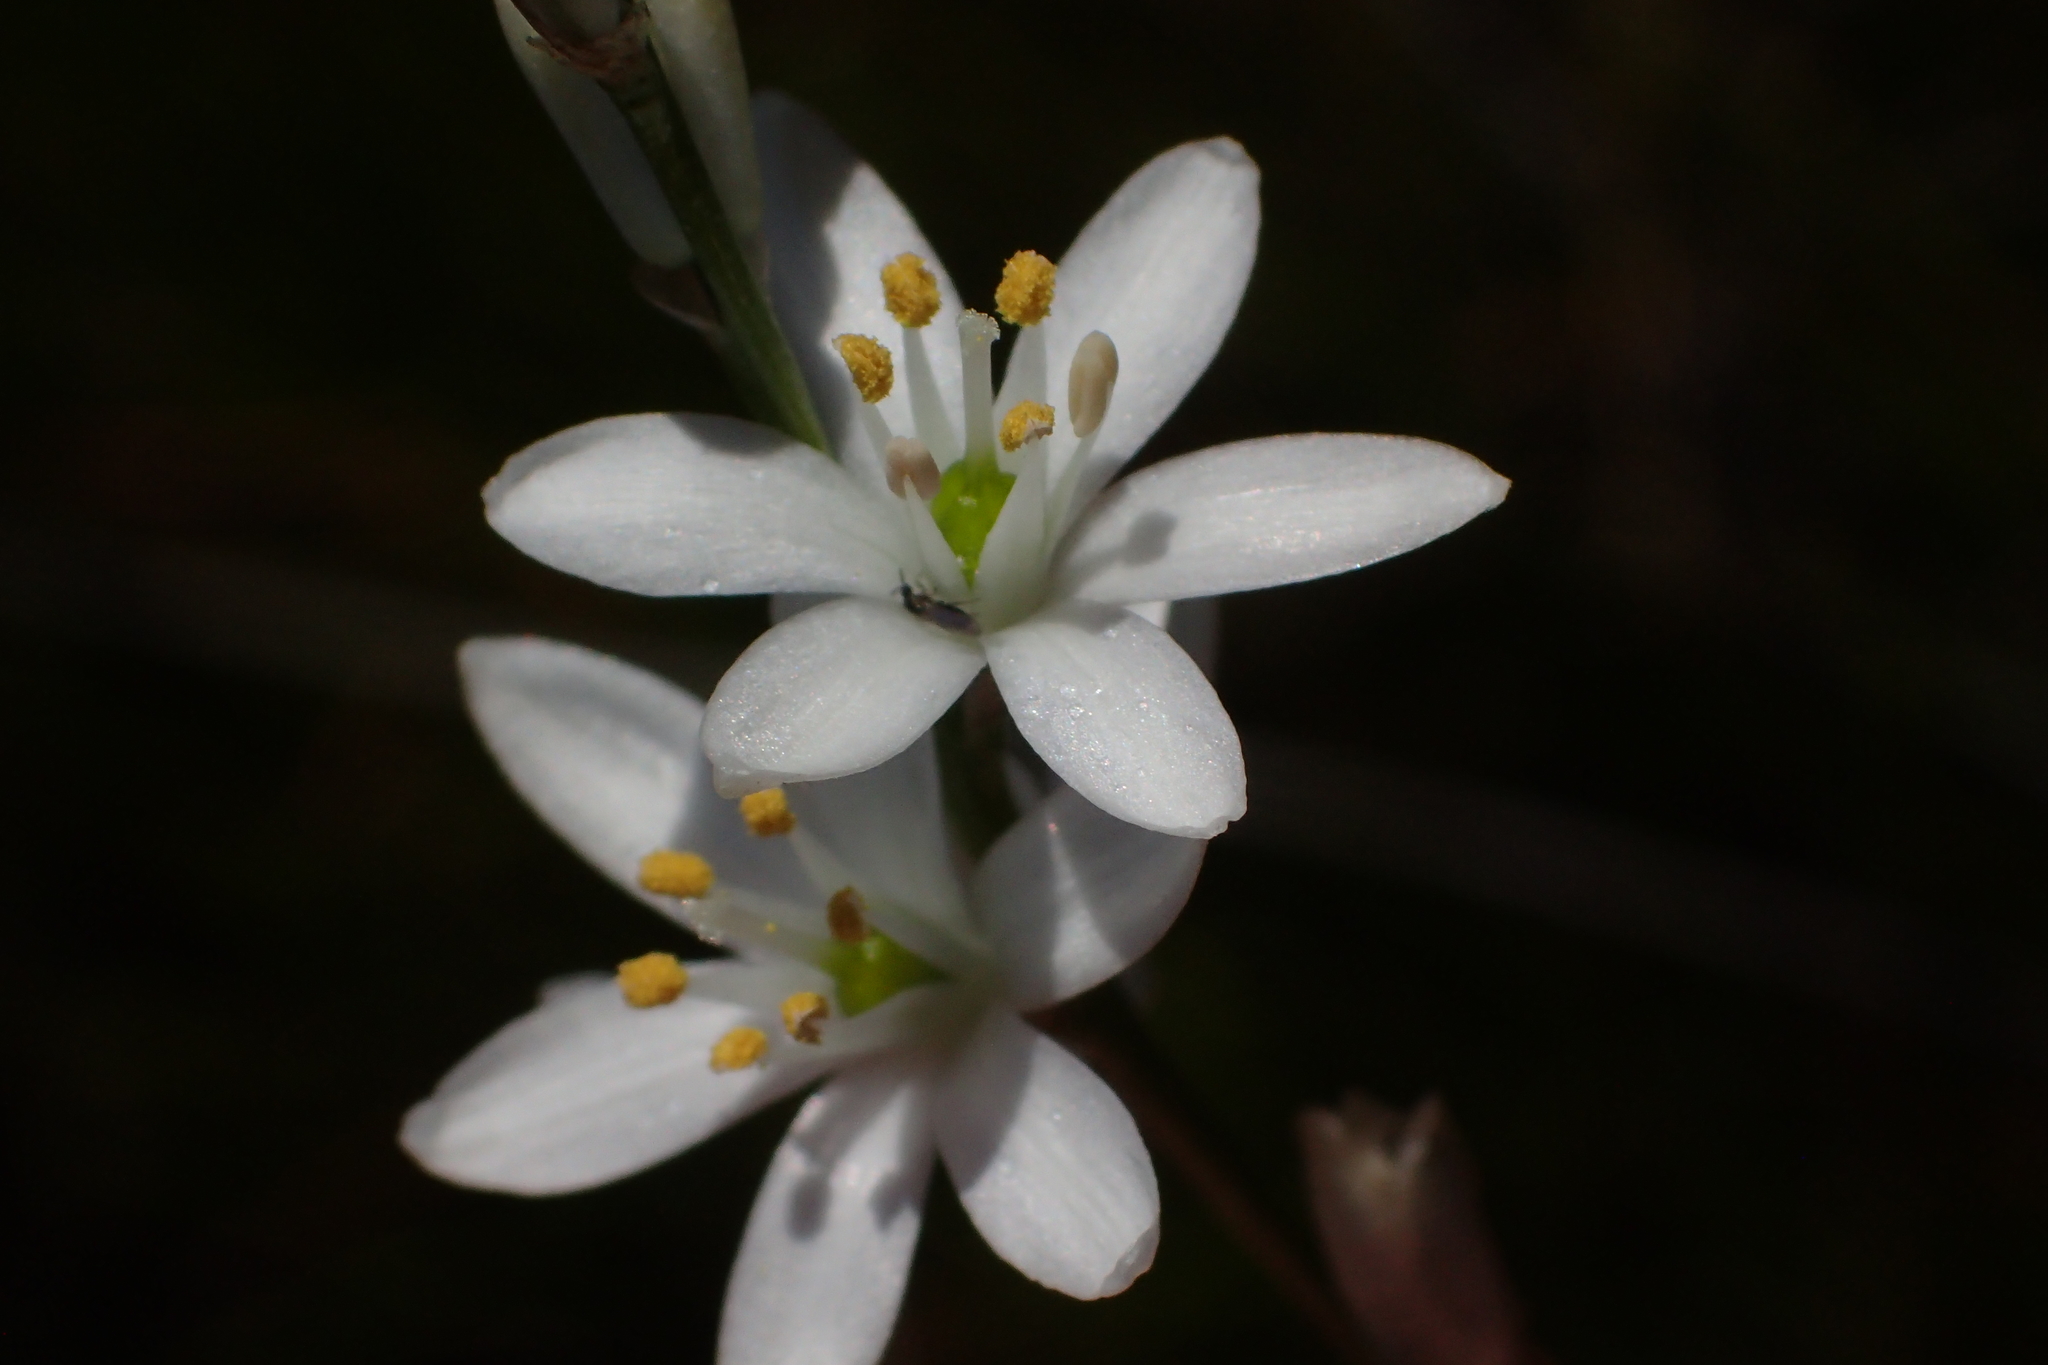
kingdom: Plantae
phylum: Tracheophyta
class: Liliopsida
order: Asparagales
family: Asparagaceae
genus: Ornithogalum
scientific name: Ornithogalum graminifolium
